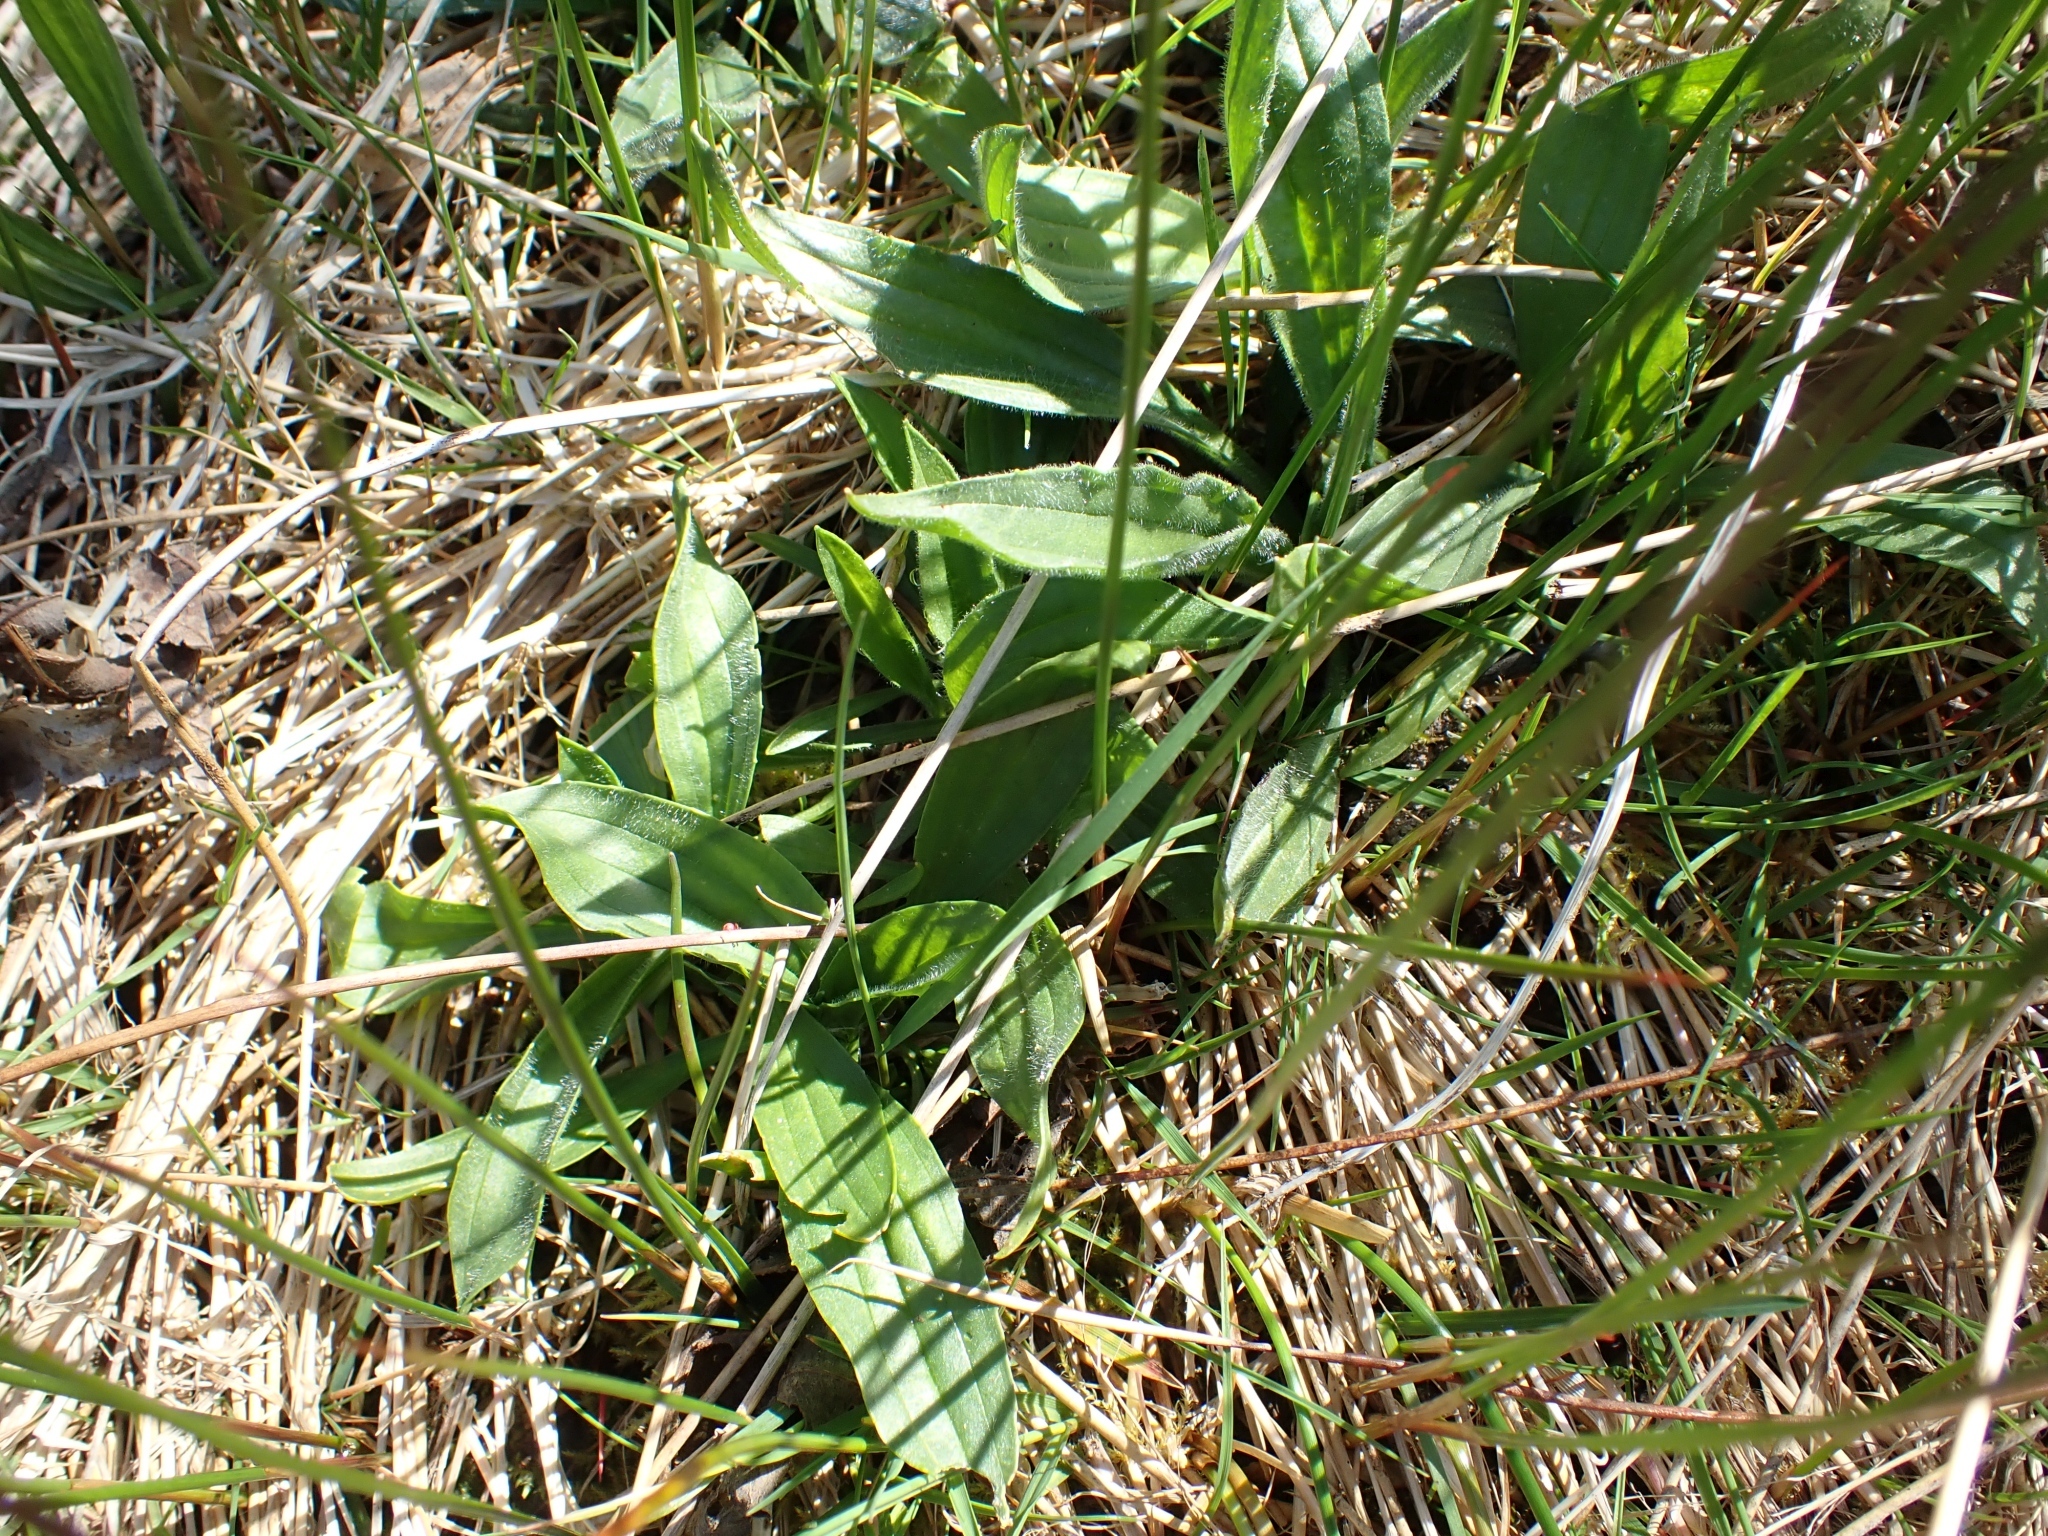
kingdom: Plantae
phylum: Tracheophyta
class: Magnoliopsida
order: Lamiales
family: Plantaginaceae
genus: Plantago
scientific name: Plantago lanceolata
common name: Ribwort plantain
